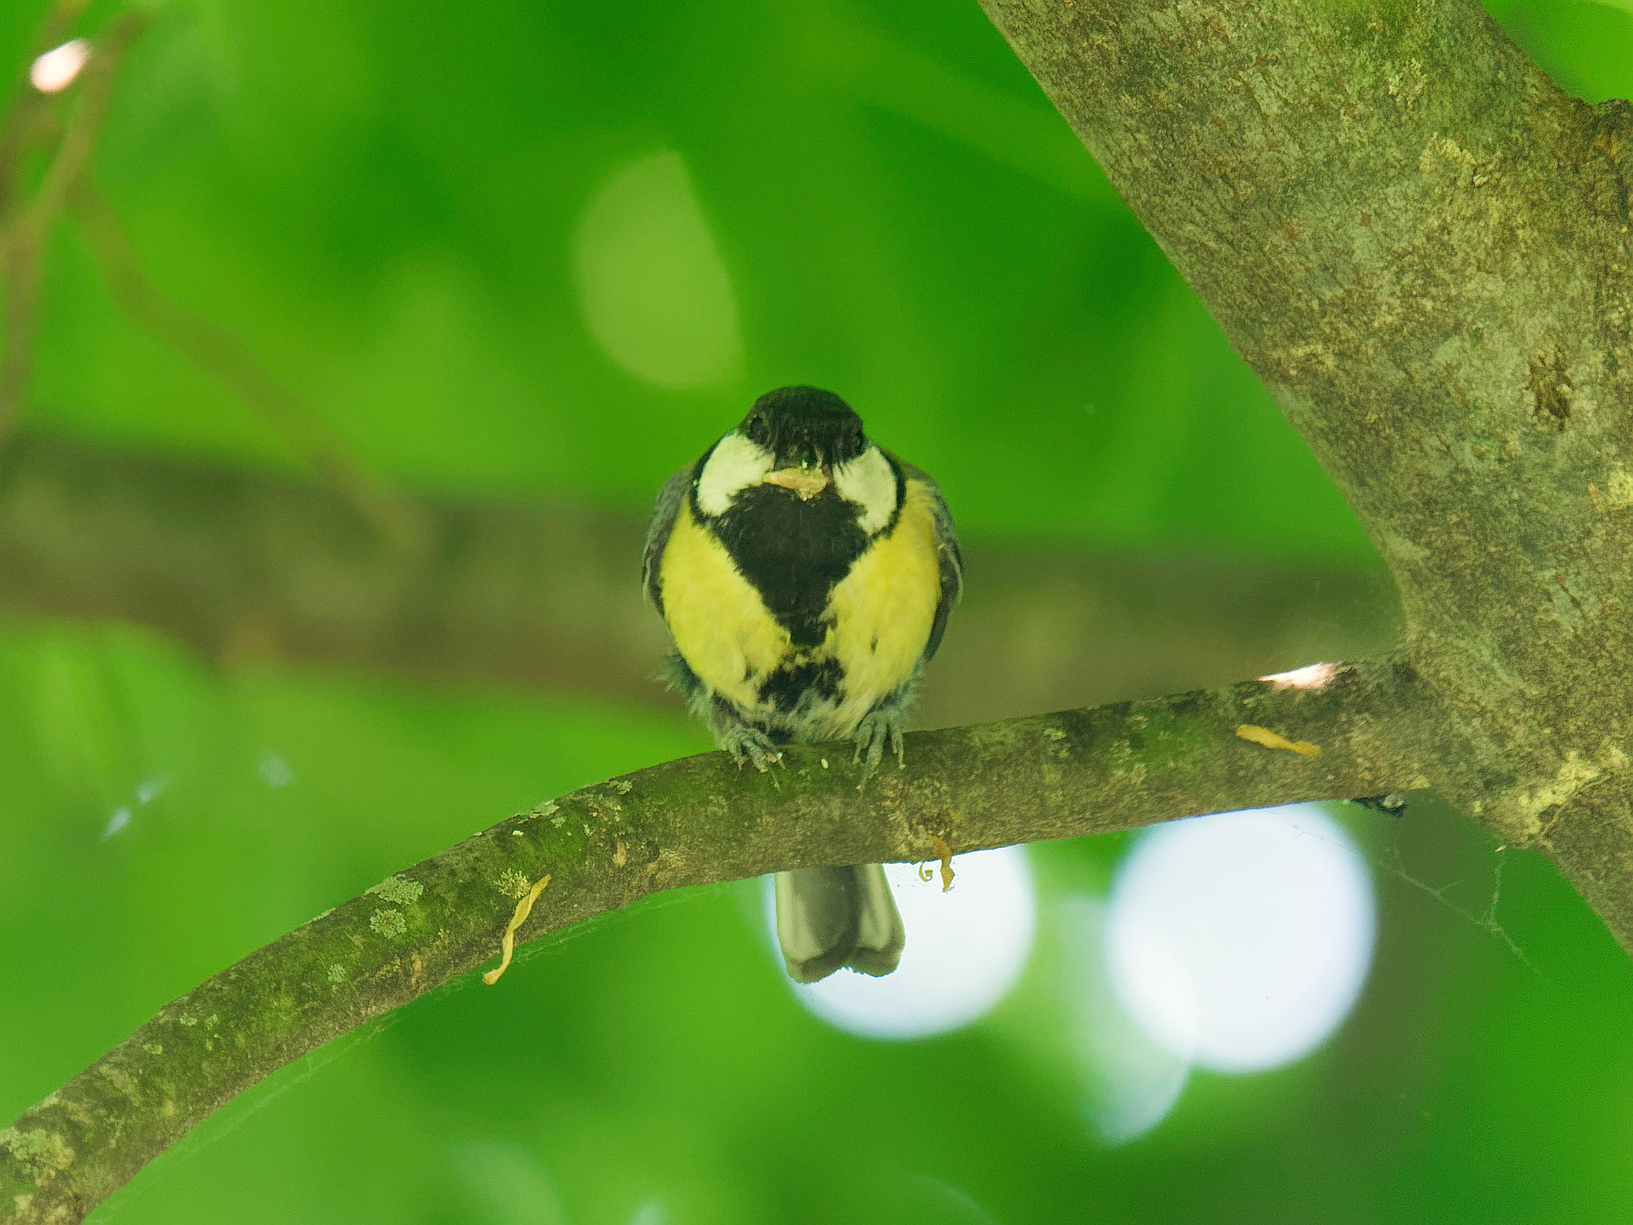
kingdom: Animalia
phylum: Chordata
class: Aves
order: Passeriformes
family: Paridae
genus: Parus
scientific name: Parus major
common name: Great tit
